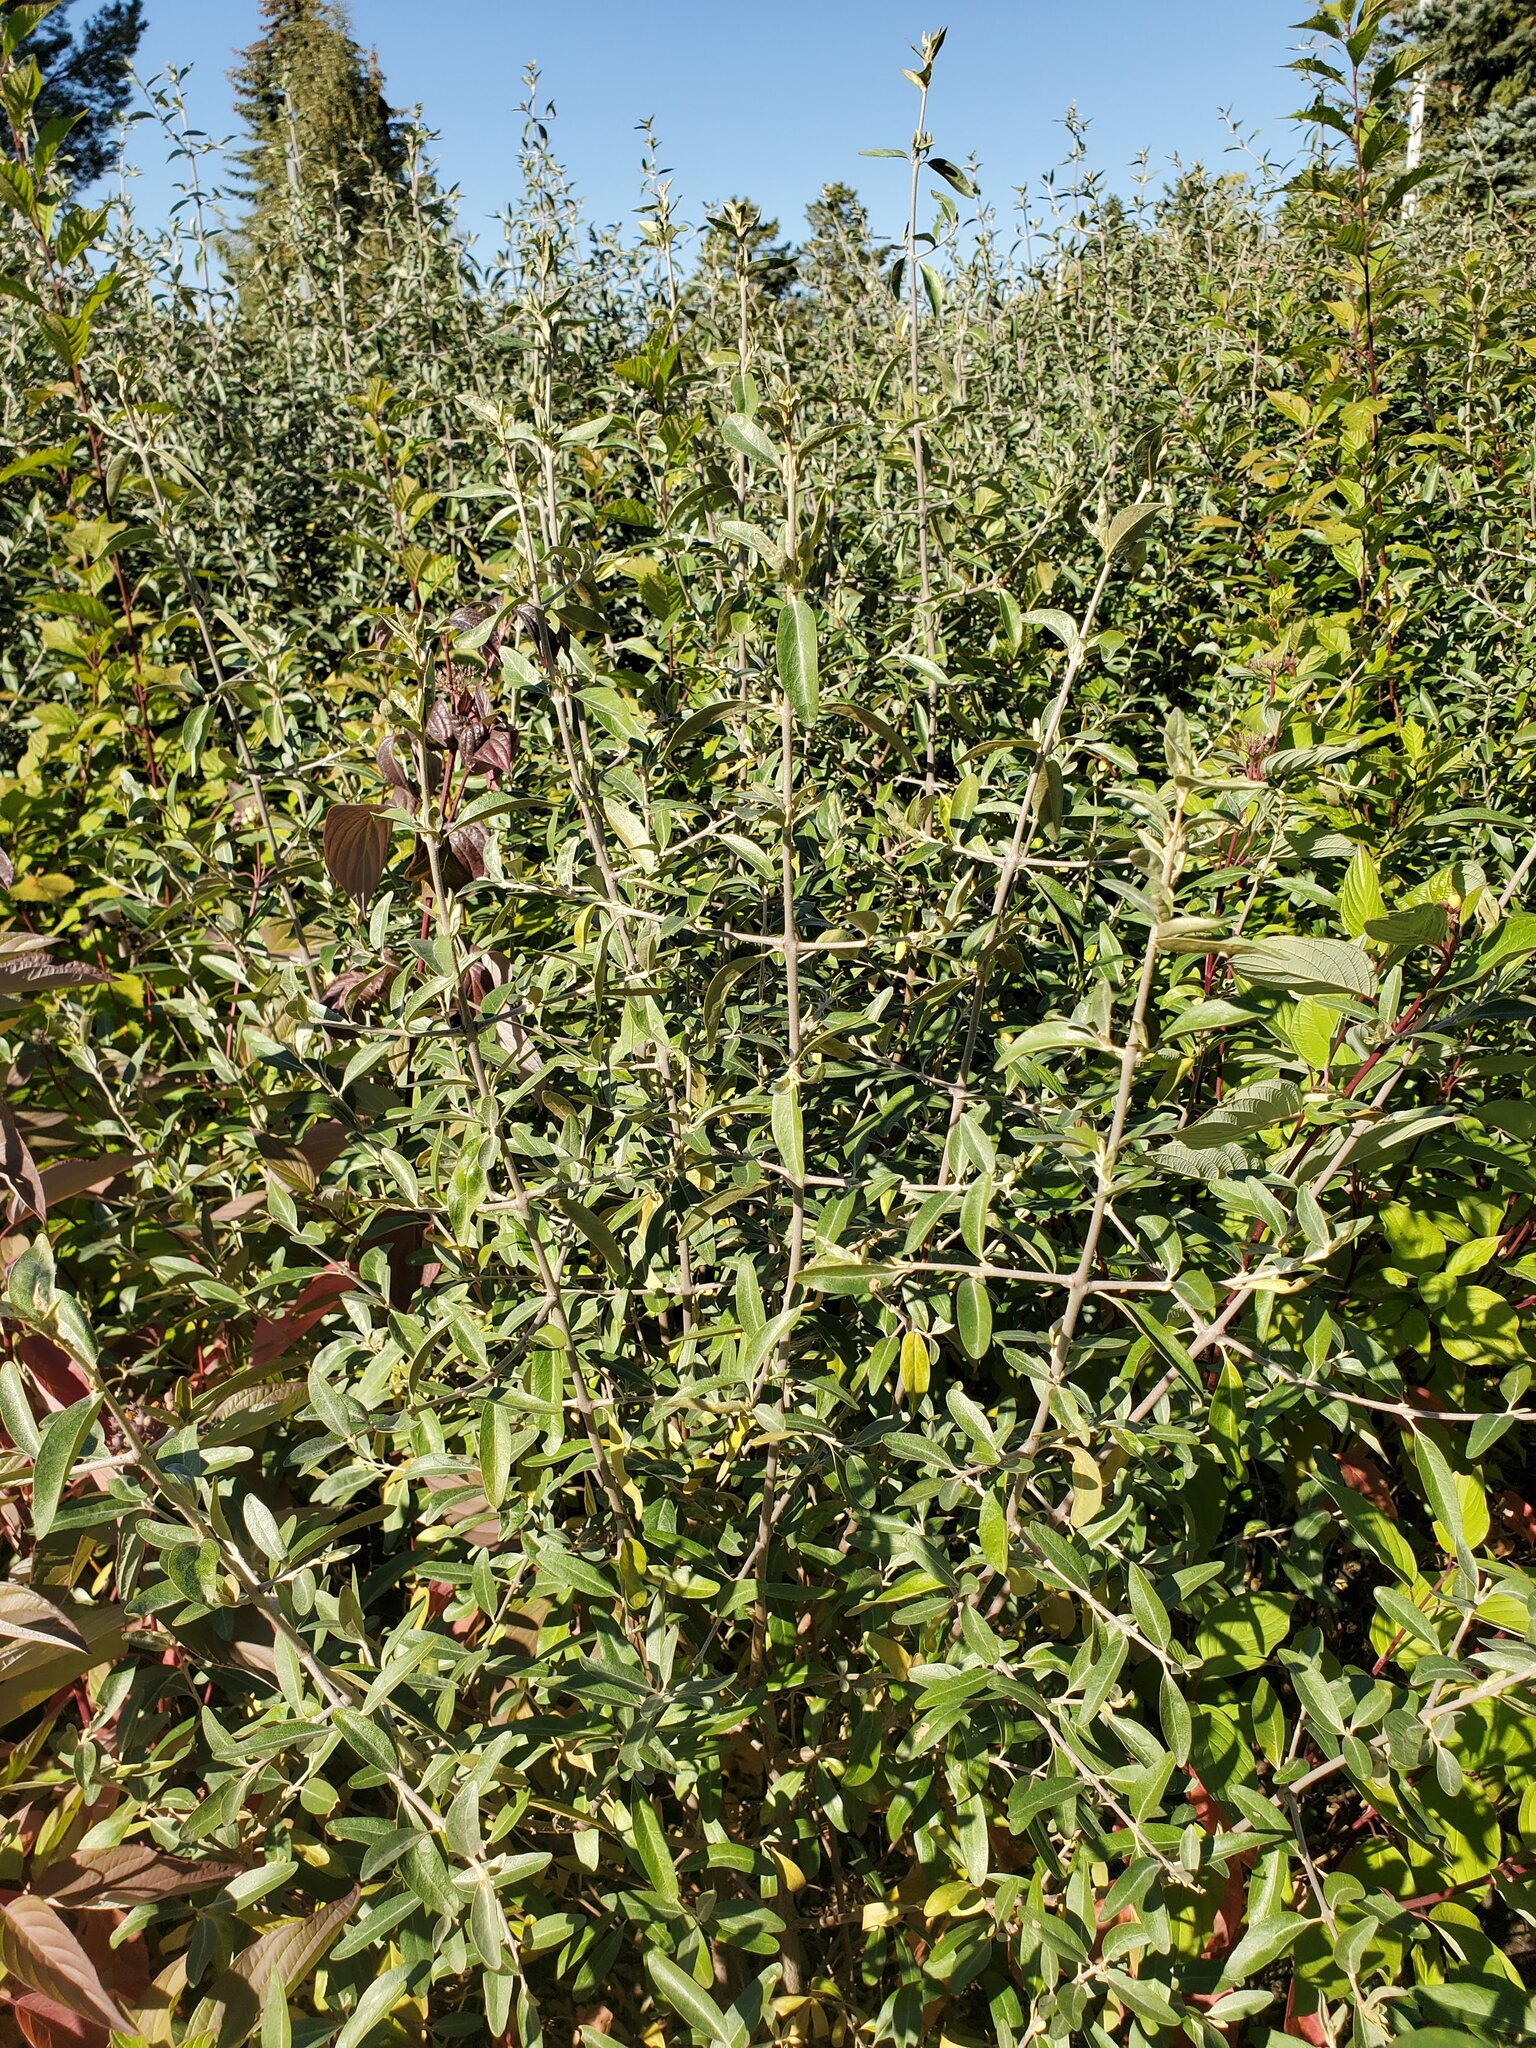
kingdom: Plantae
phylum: Tracheophyta
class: Magnoliopsida
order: Rosales
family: Elaeagnaceae
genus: Shepherdia
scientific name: Shepherdia argentea
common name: Silver buffaloberry
